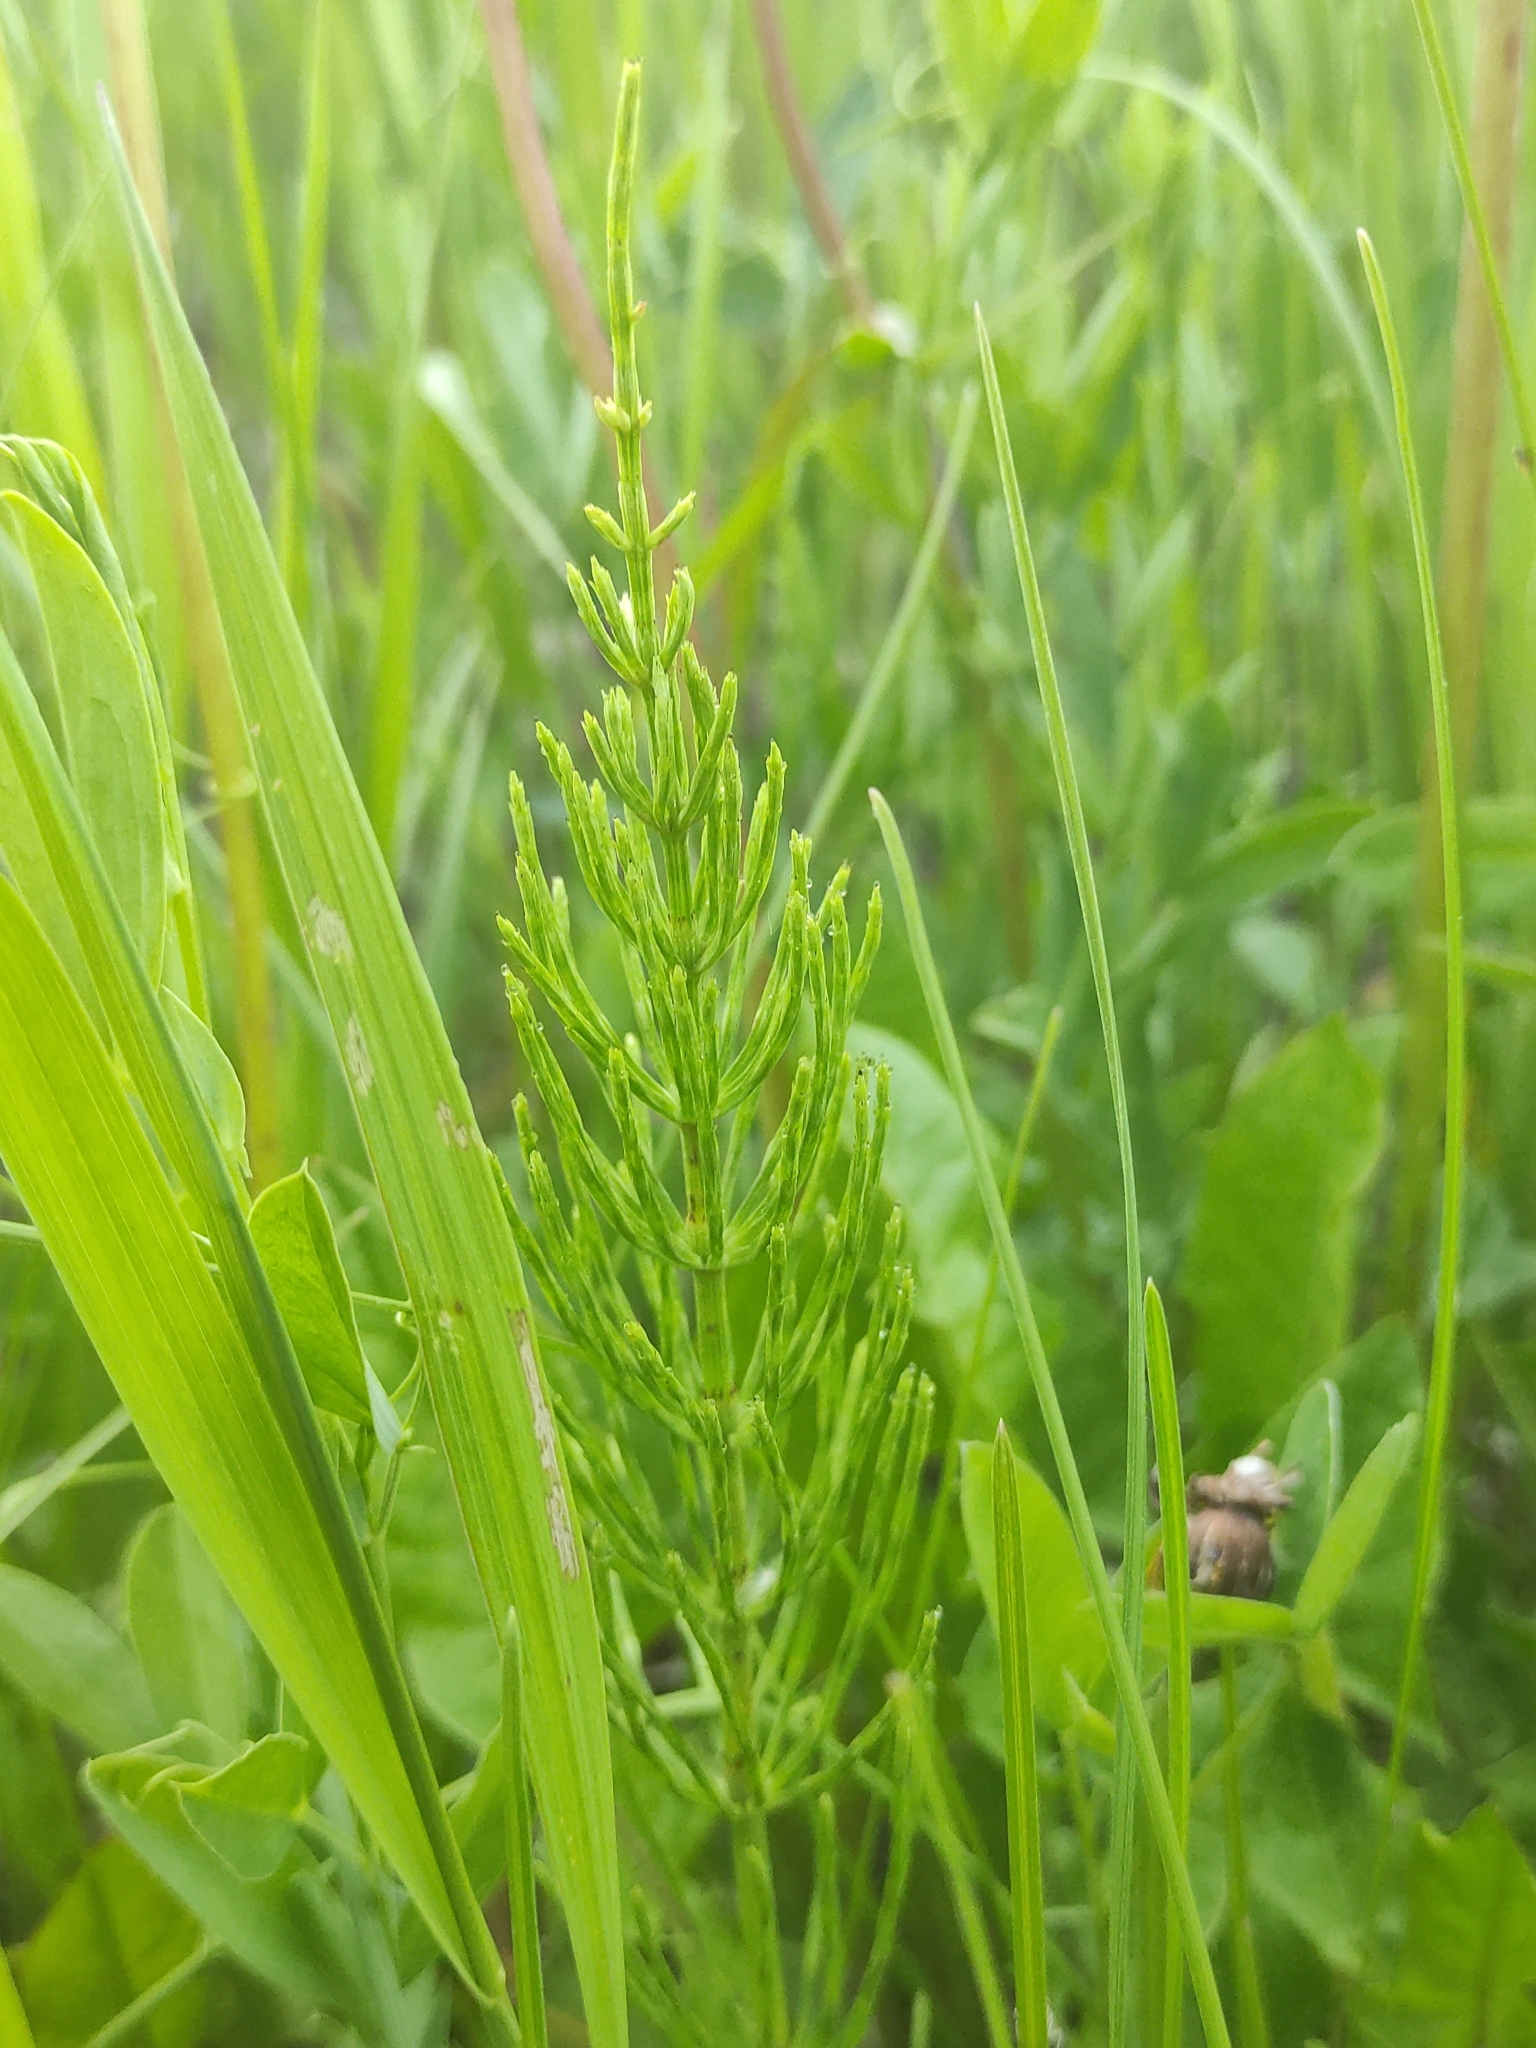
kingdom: Plantae
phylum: Tracheophyta
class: Polypodiopsida
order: Equisetales
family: Equisetaceae
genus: Equisetum
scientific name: Equisetum arvense
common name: Field horsetail
